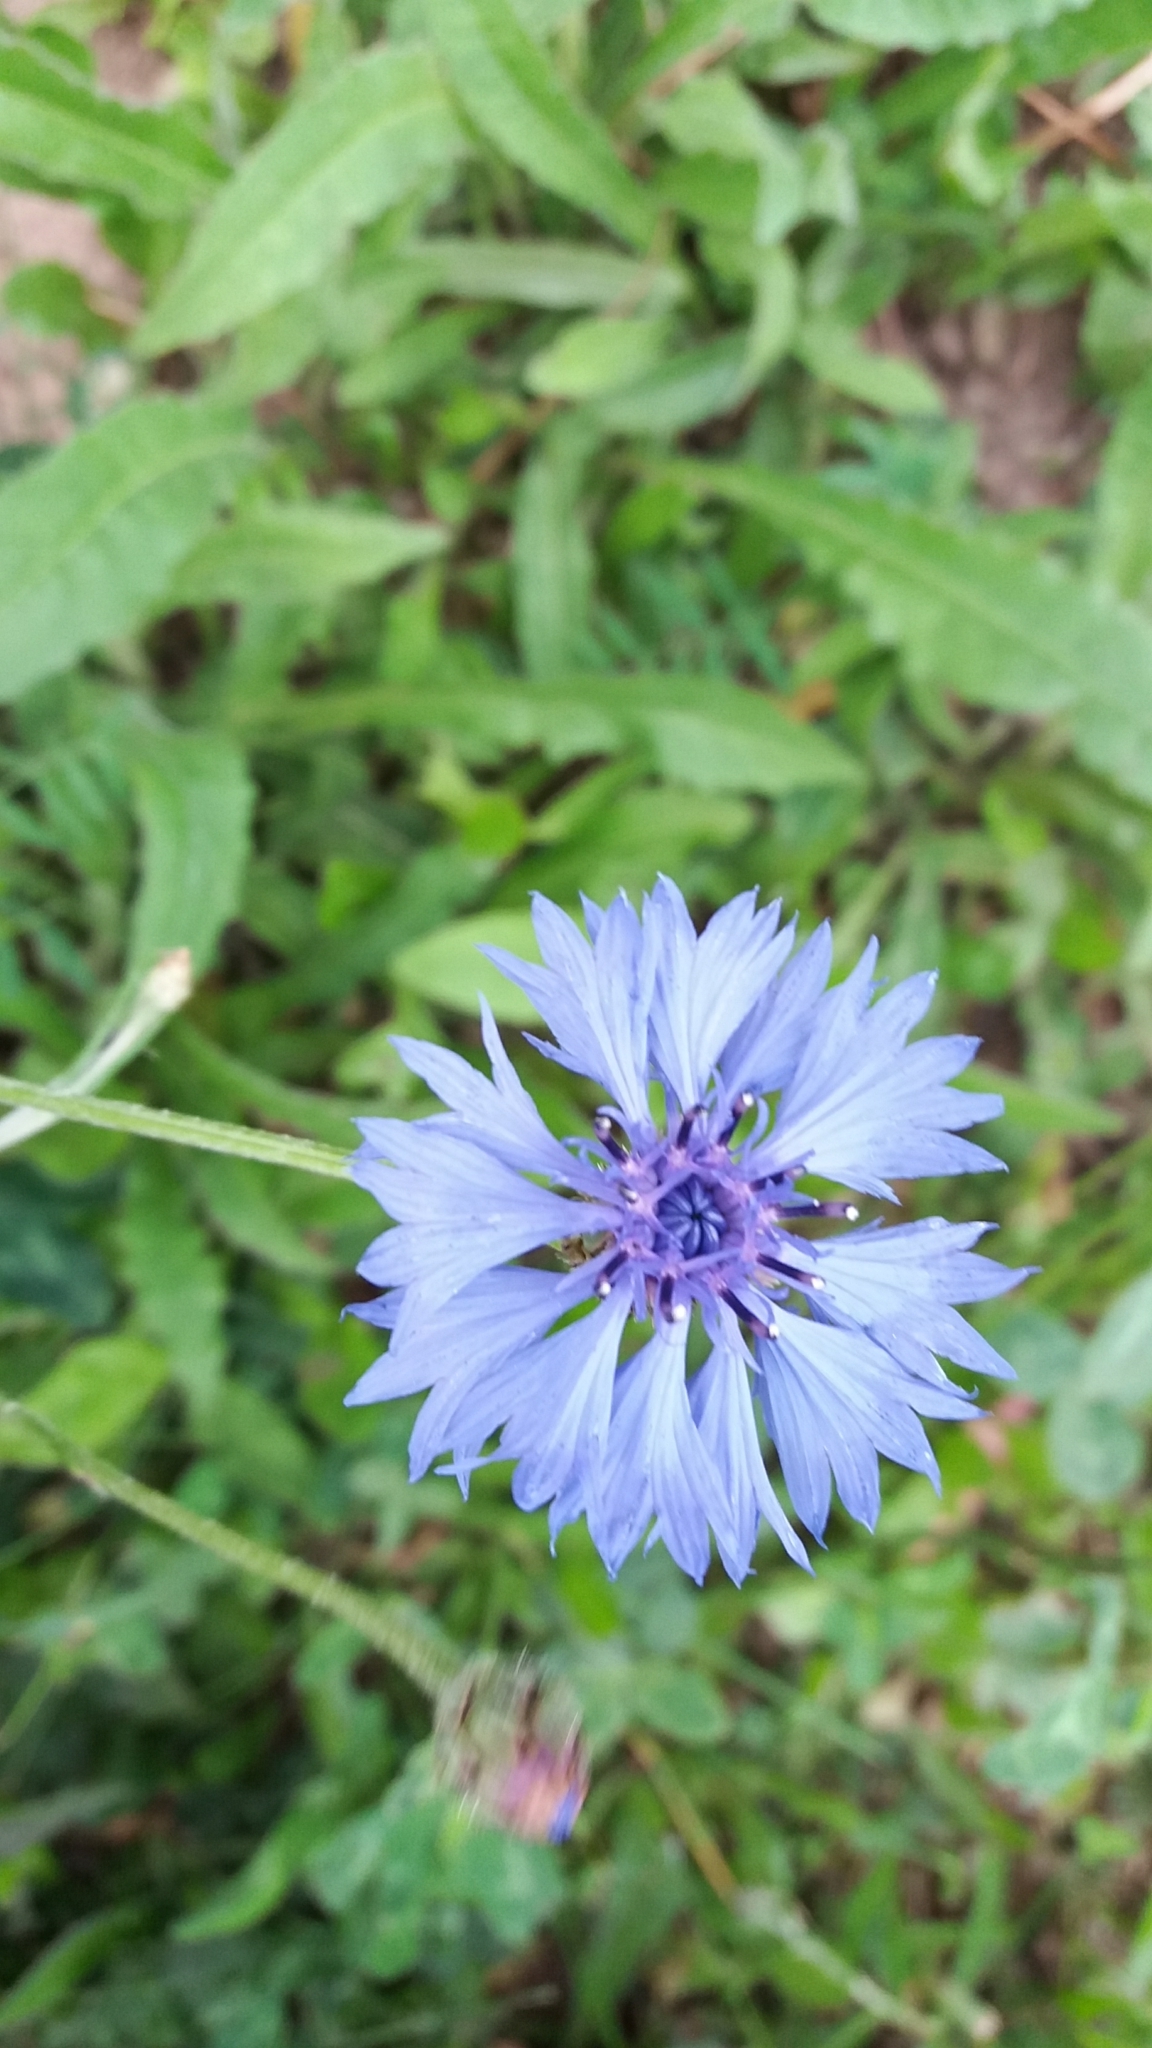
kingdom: Plantae
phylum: Tracheophyta
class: Magnoliopsida
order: Asterales
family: Asteraceae
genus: Centaurea
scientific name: Centaurea cyanus
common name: Cornflower
